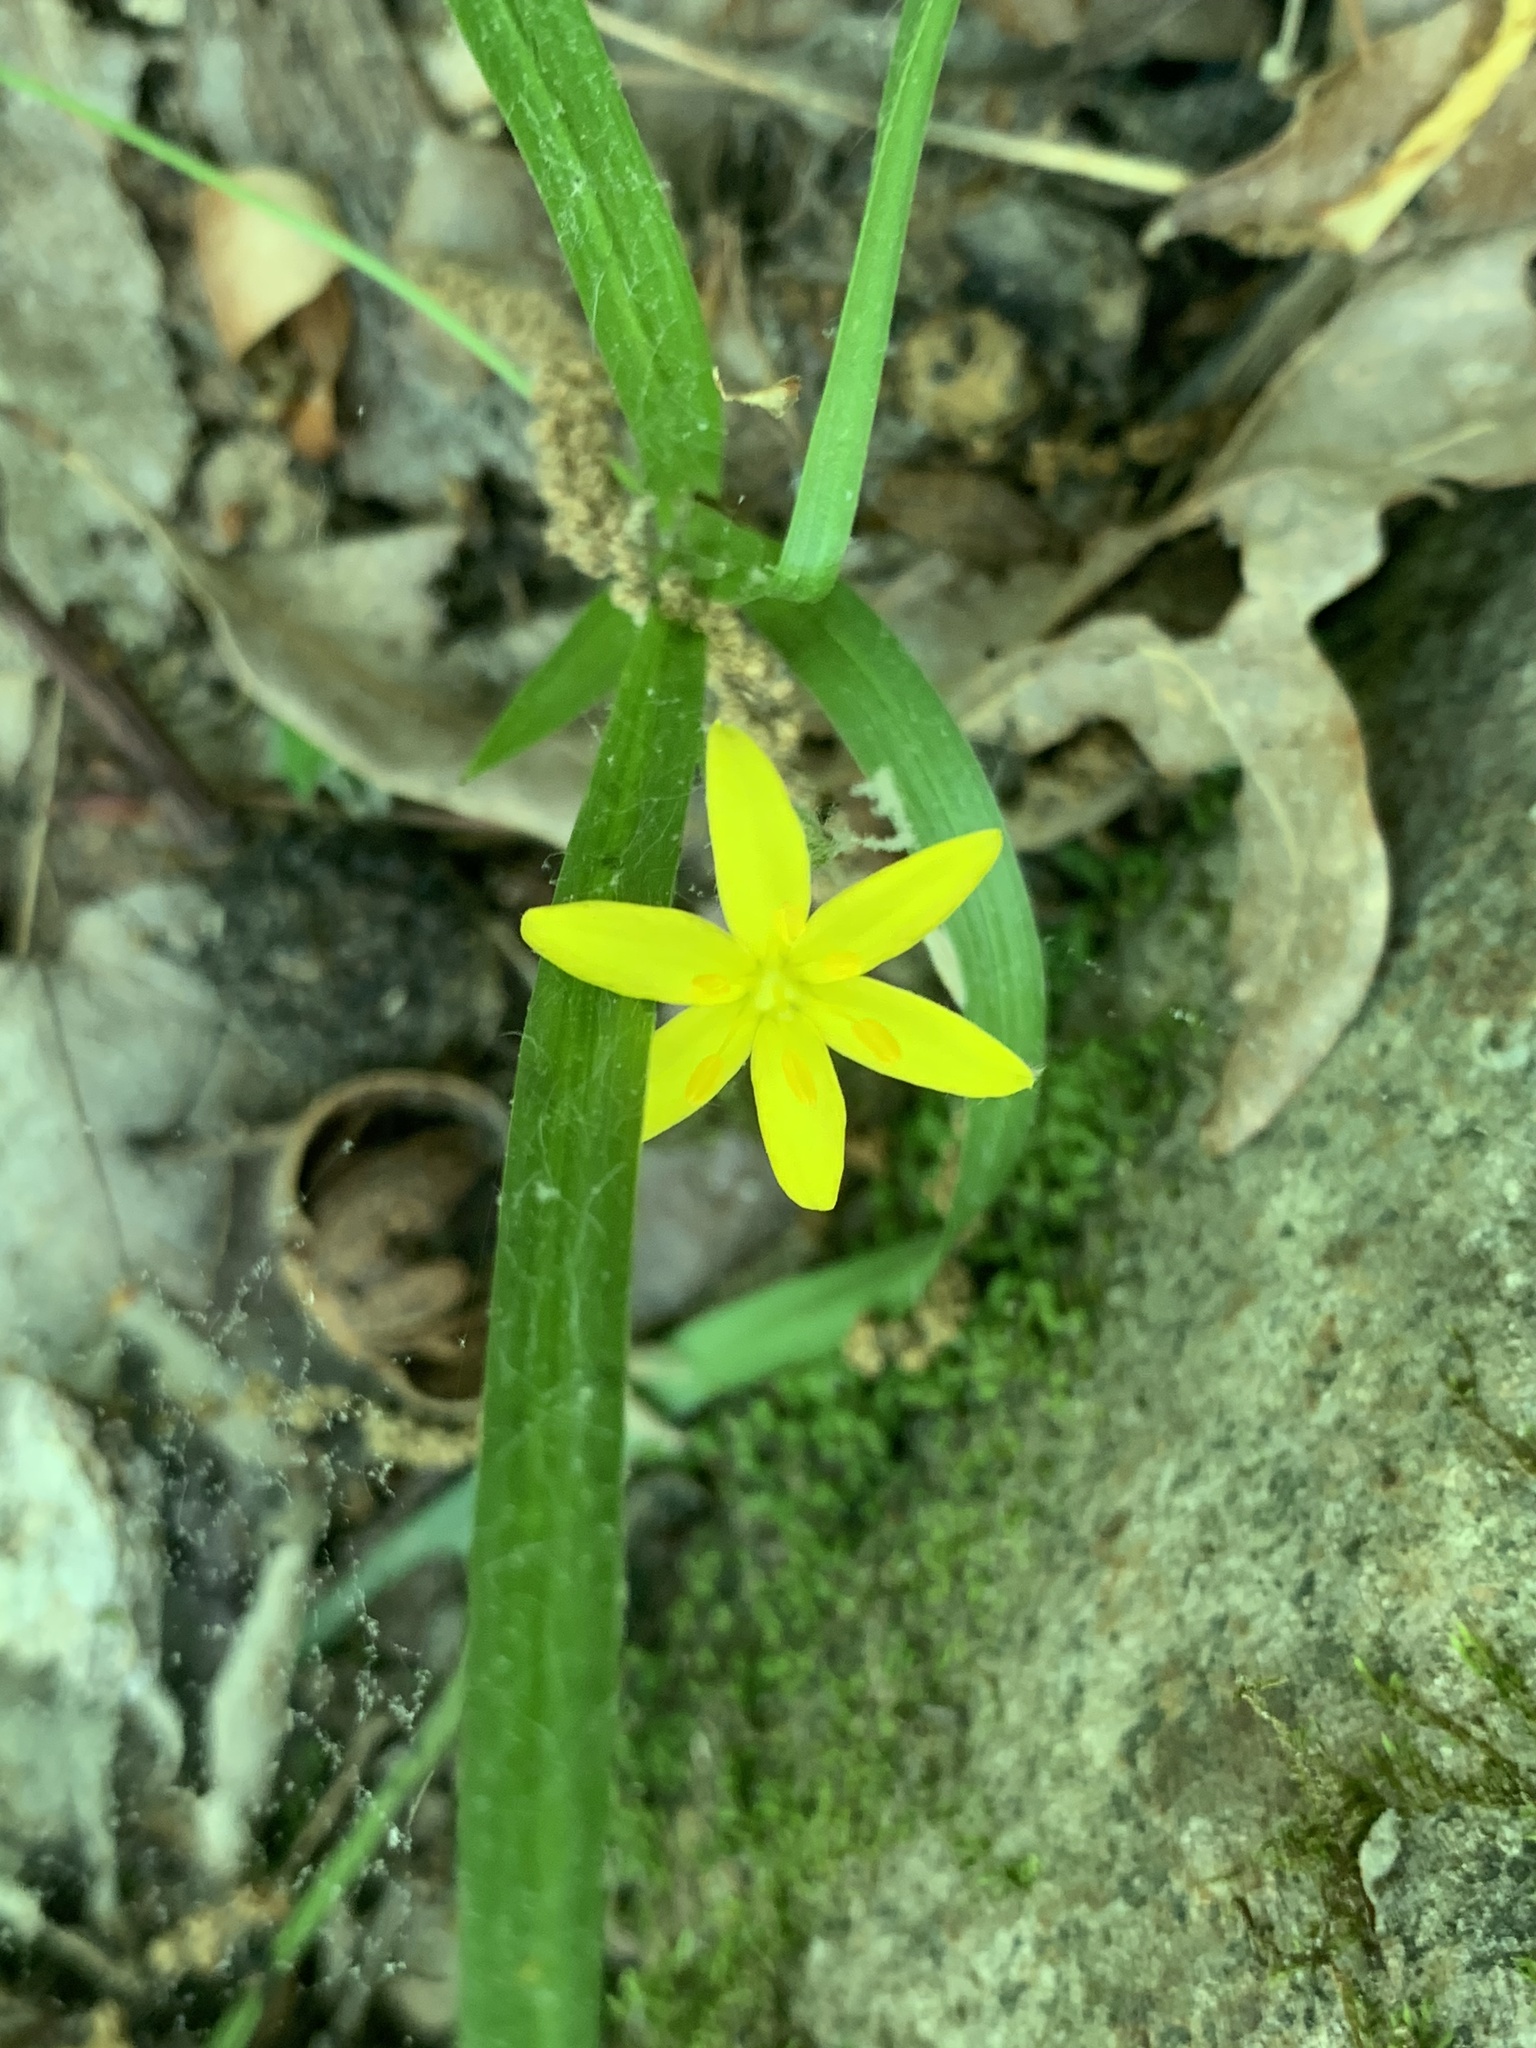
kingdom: Plantae
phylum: Tracheophyta
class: Liliopsida
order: Asparagales
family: Hypoxidaceae
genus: Hypoxis
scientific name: Hypoxis hirsuta
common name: Common goldstar
